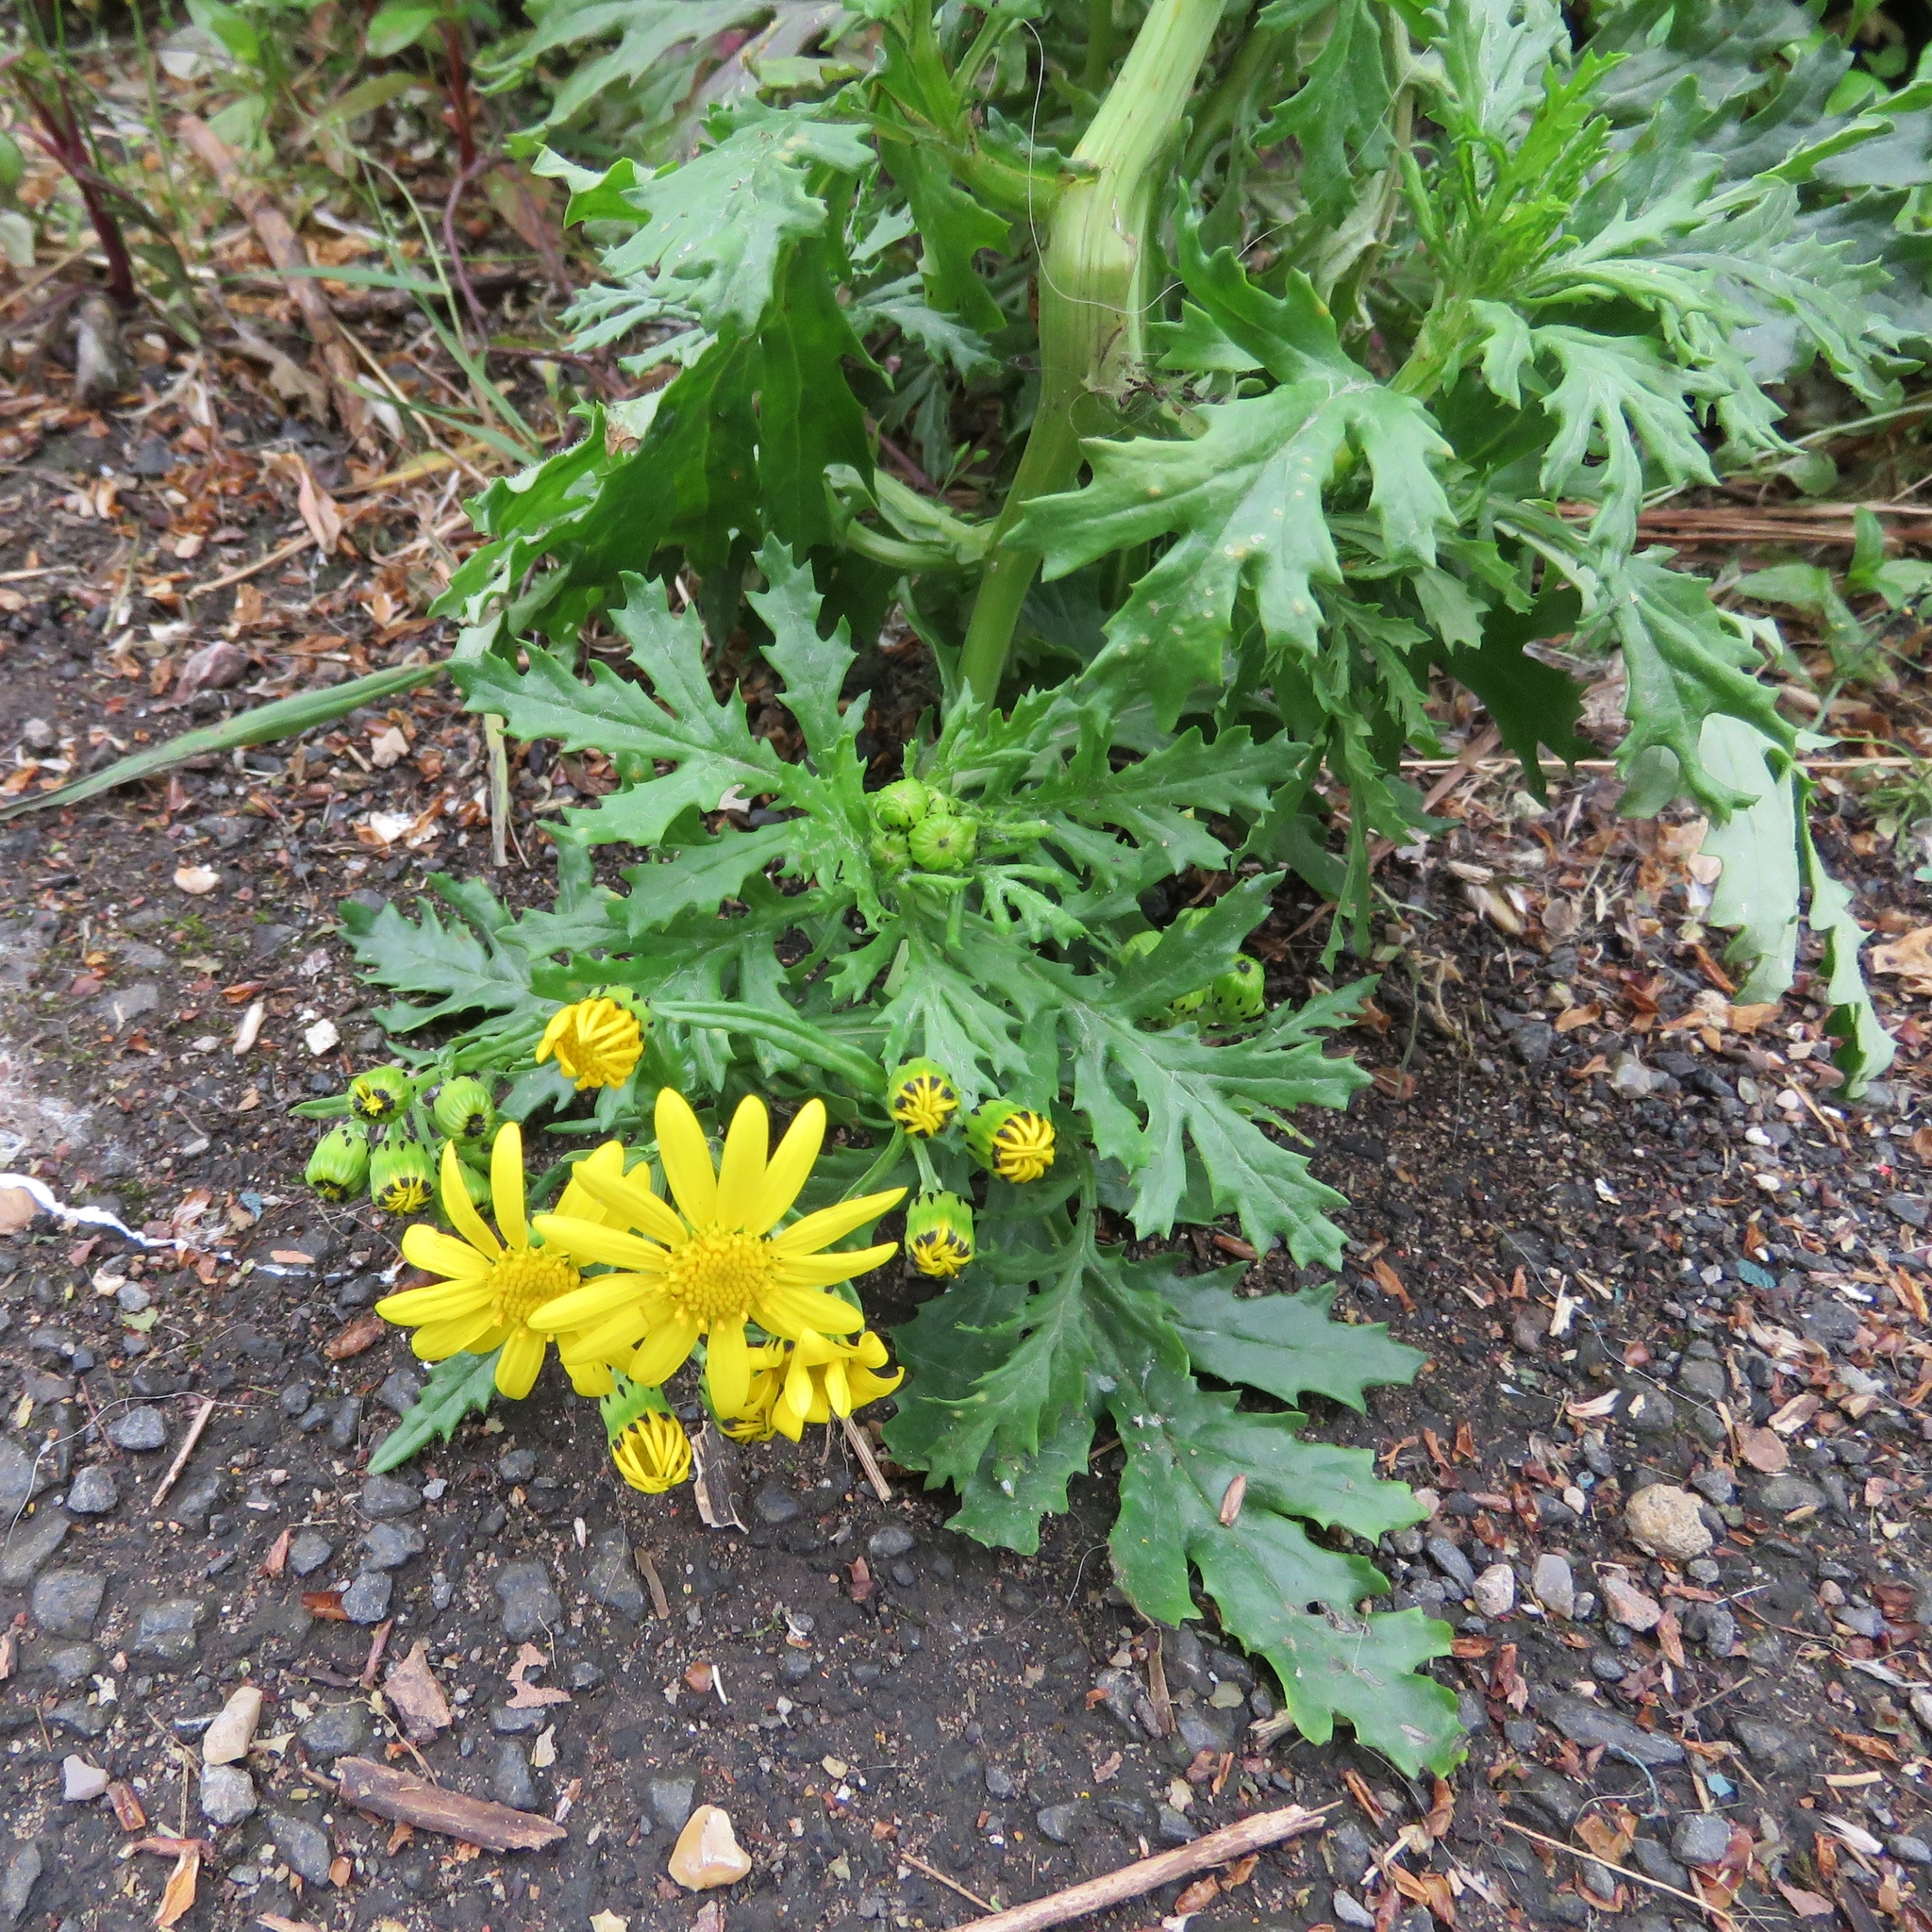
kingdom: Plantae
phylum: Tracheophyta
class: Magnoliopsida
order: Asterales
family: Asteraceae
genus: Senecio
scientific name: Senecio squalidus
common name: Oxford ragwort
